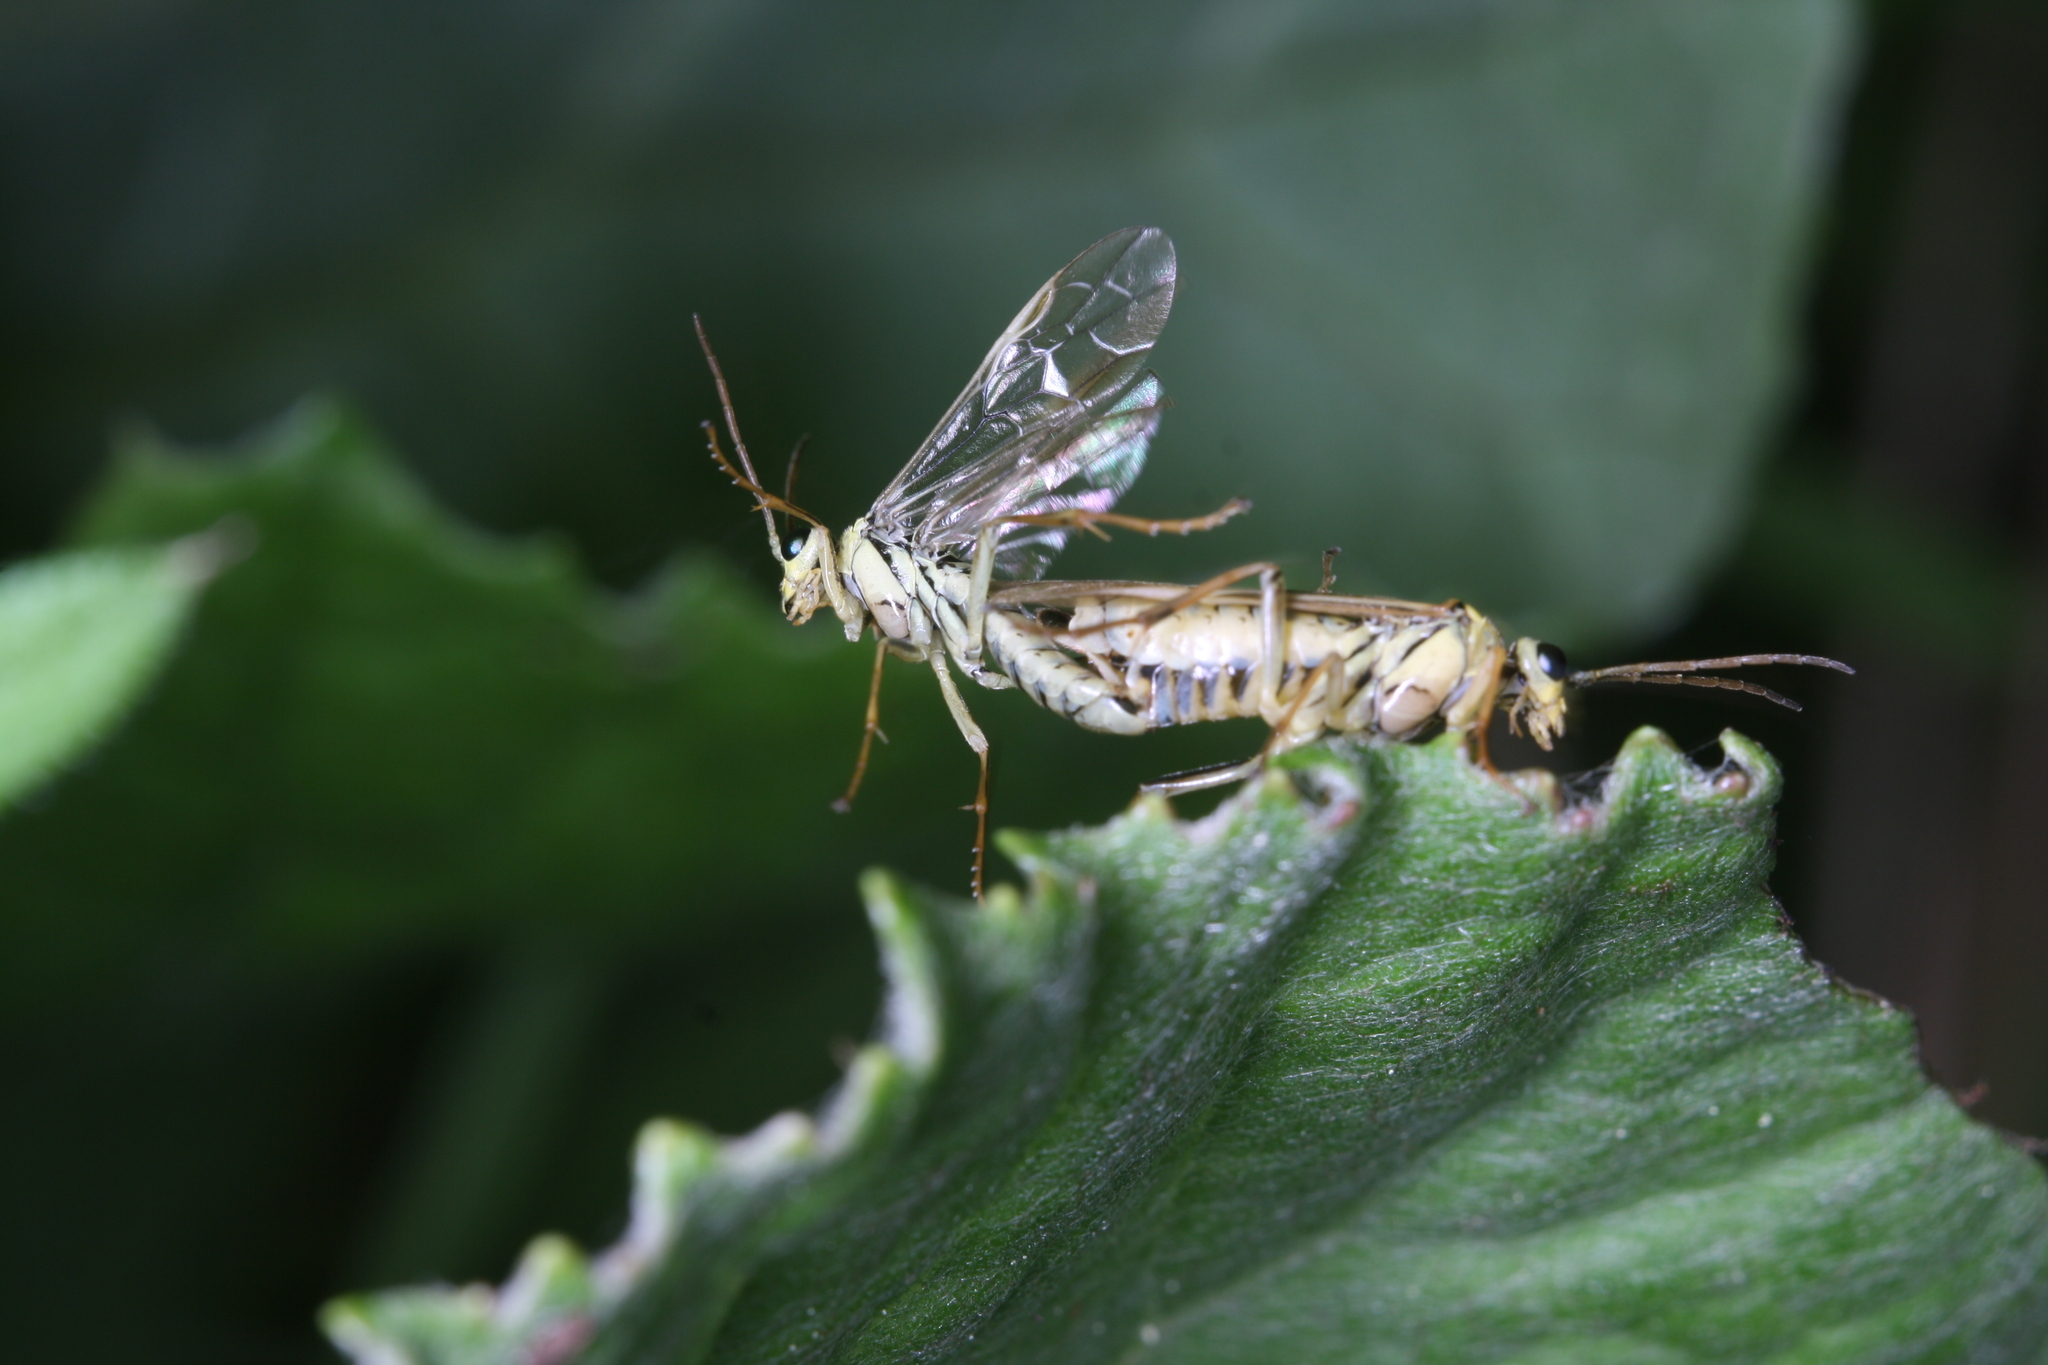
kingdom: Animalia
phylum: Arthropoda
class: Insecta
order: Hymenoptera
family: Tenthredinidae
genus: Aglaostigma
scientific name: Aglaostigma lichtwardti
